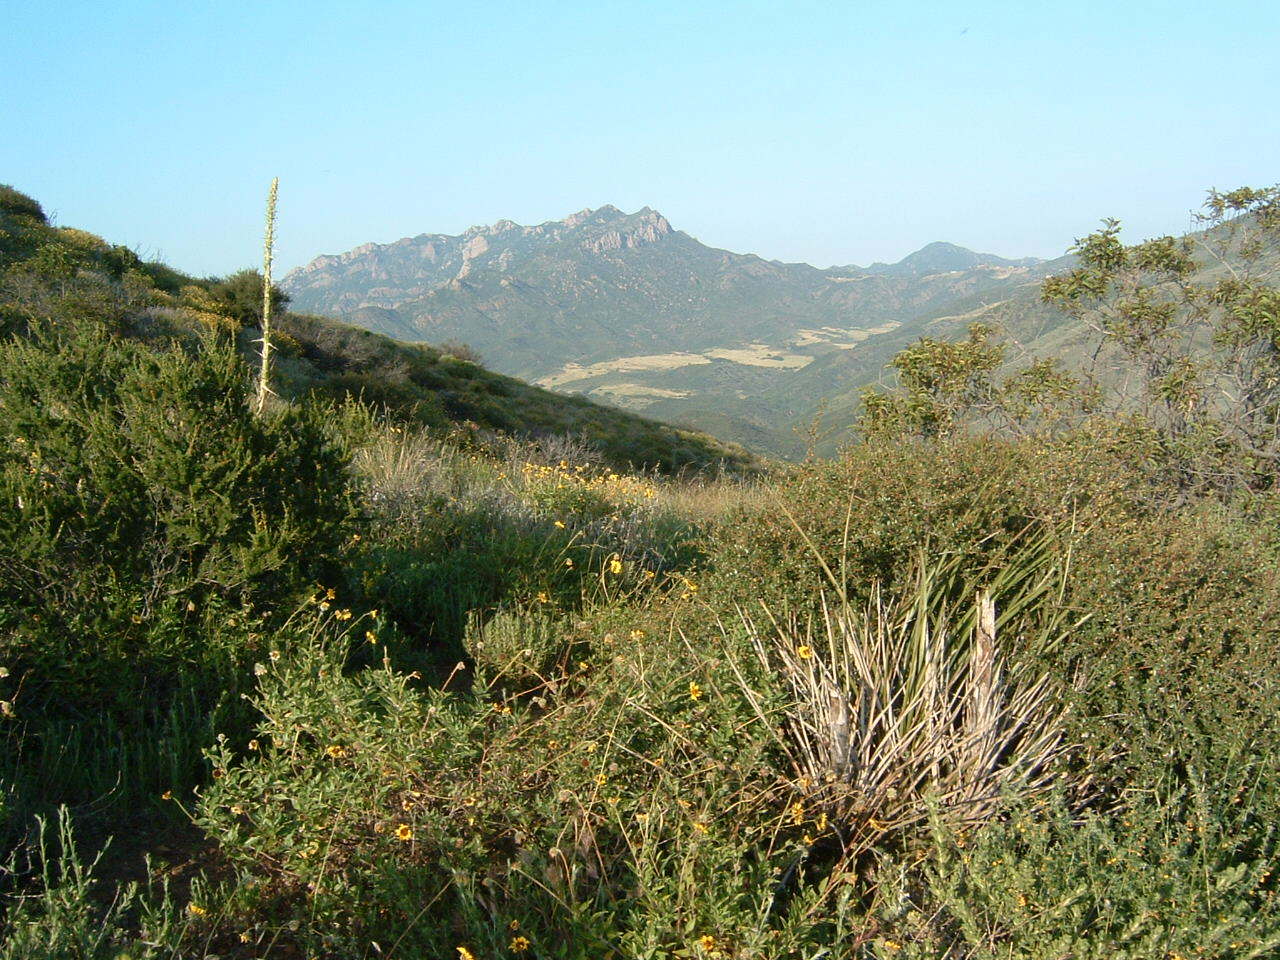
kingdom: Plantae
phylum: Tracheophyta
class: Liliopsida
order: Asparagales
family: Asparagaceae
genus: Hesperoyucca
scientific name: Hesperoyucca whipplei
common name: Our lord's-candle
